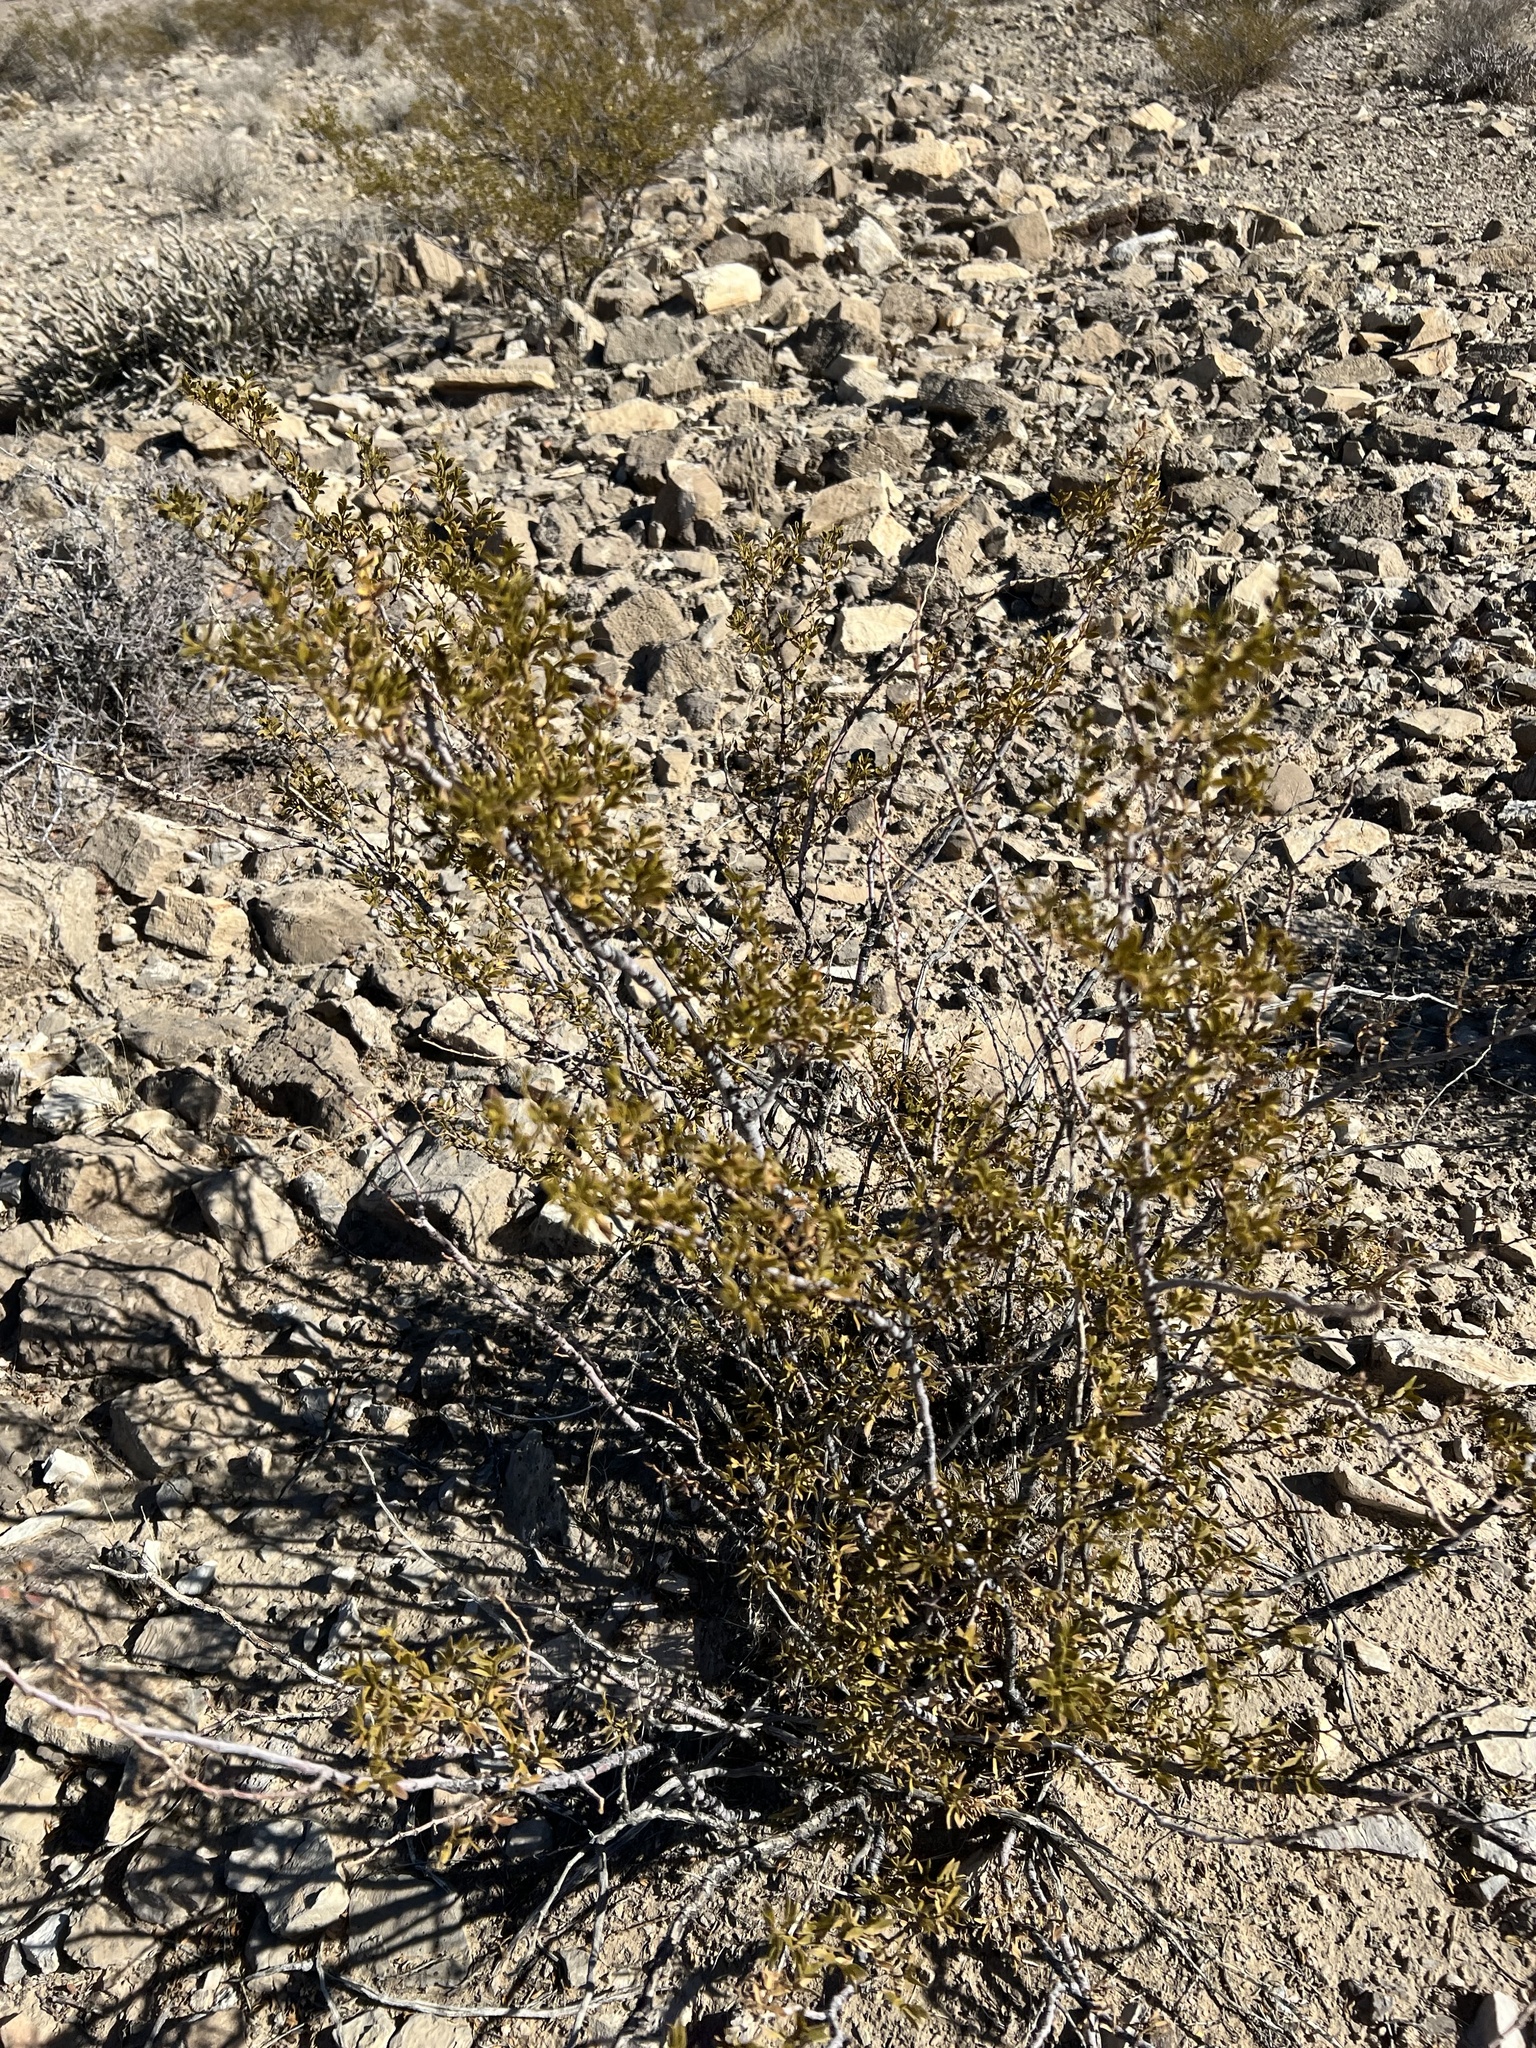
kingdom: Plantae
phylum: Tracheophyta
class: Magnoliopsida
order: Zygophyllales
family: Zygophyllaceae
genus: Larrea
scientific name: Larrea tridentata
